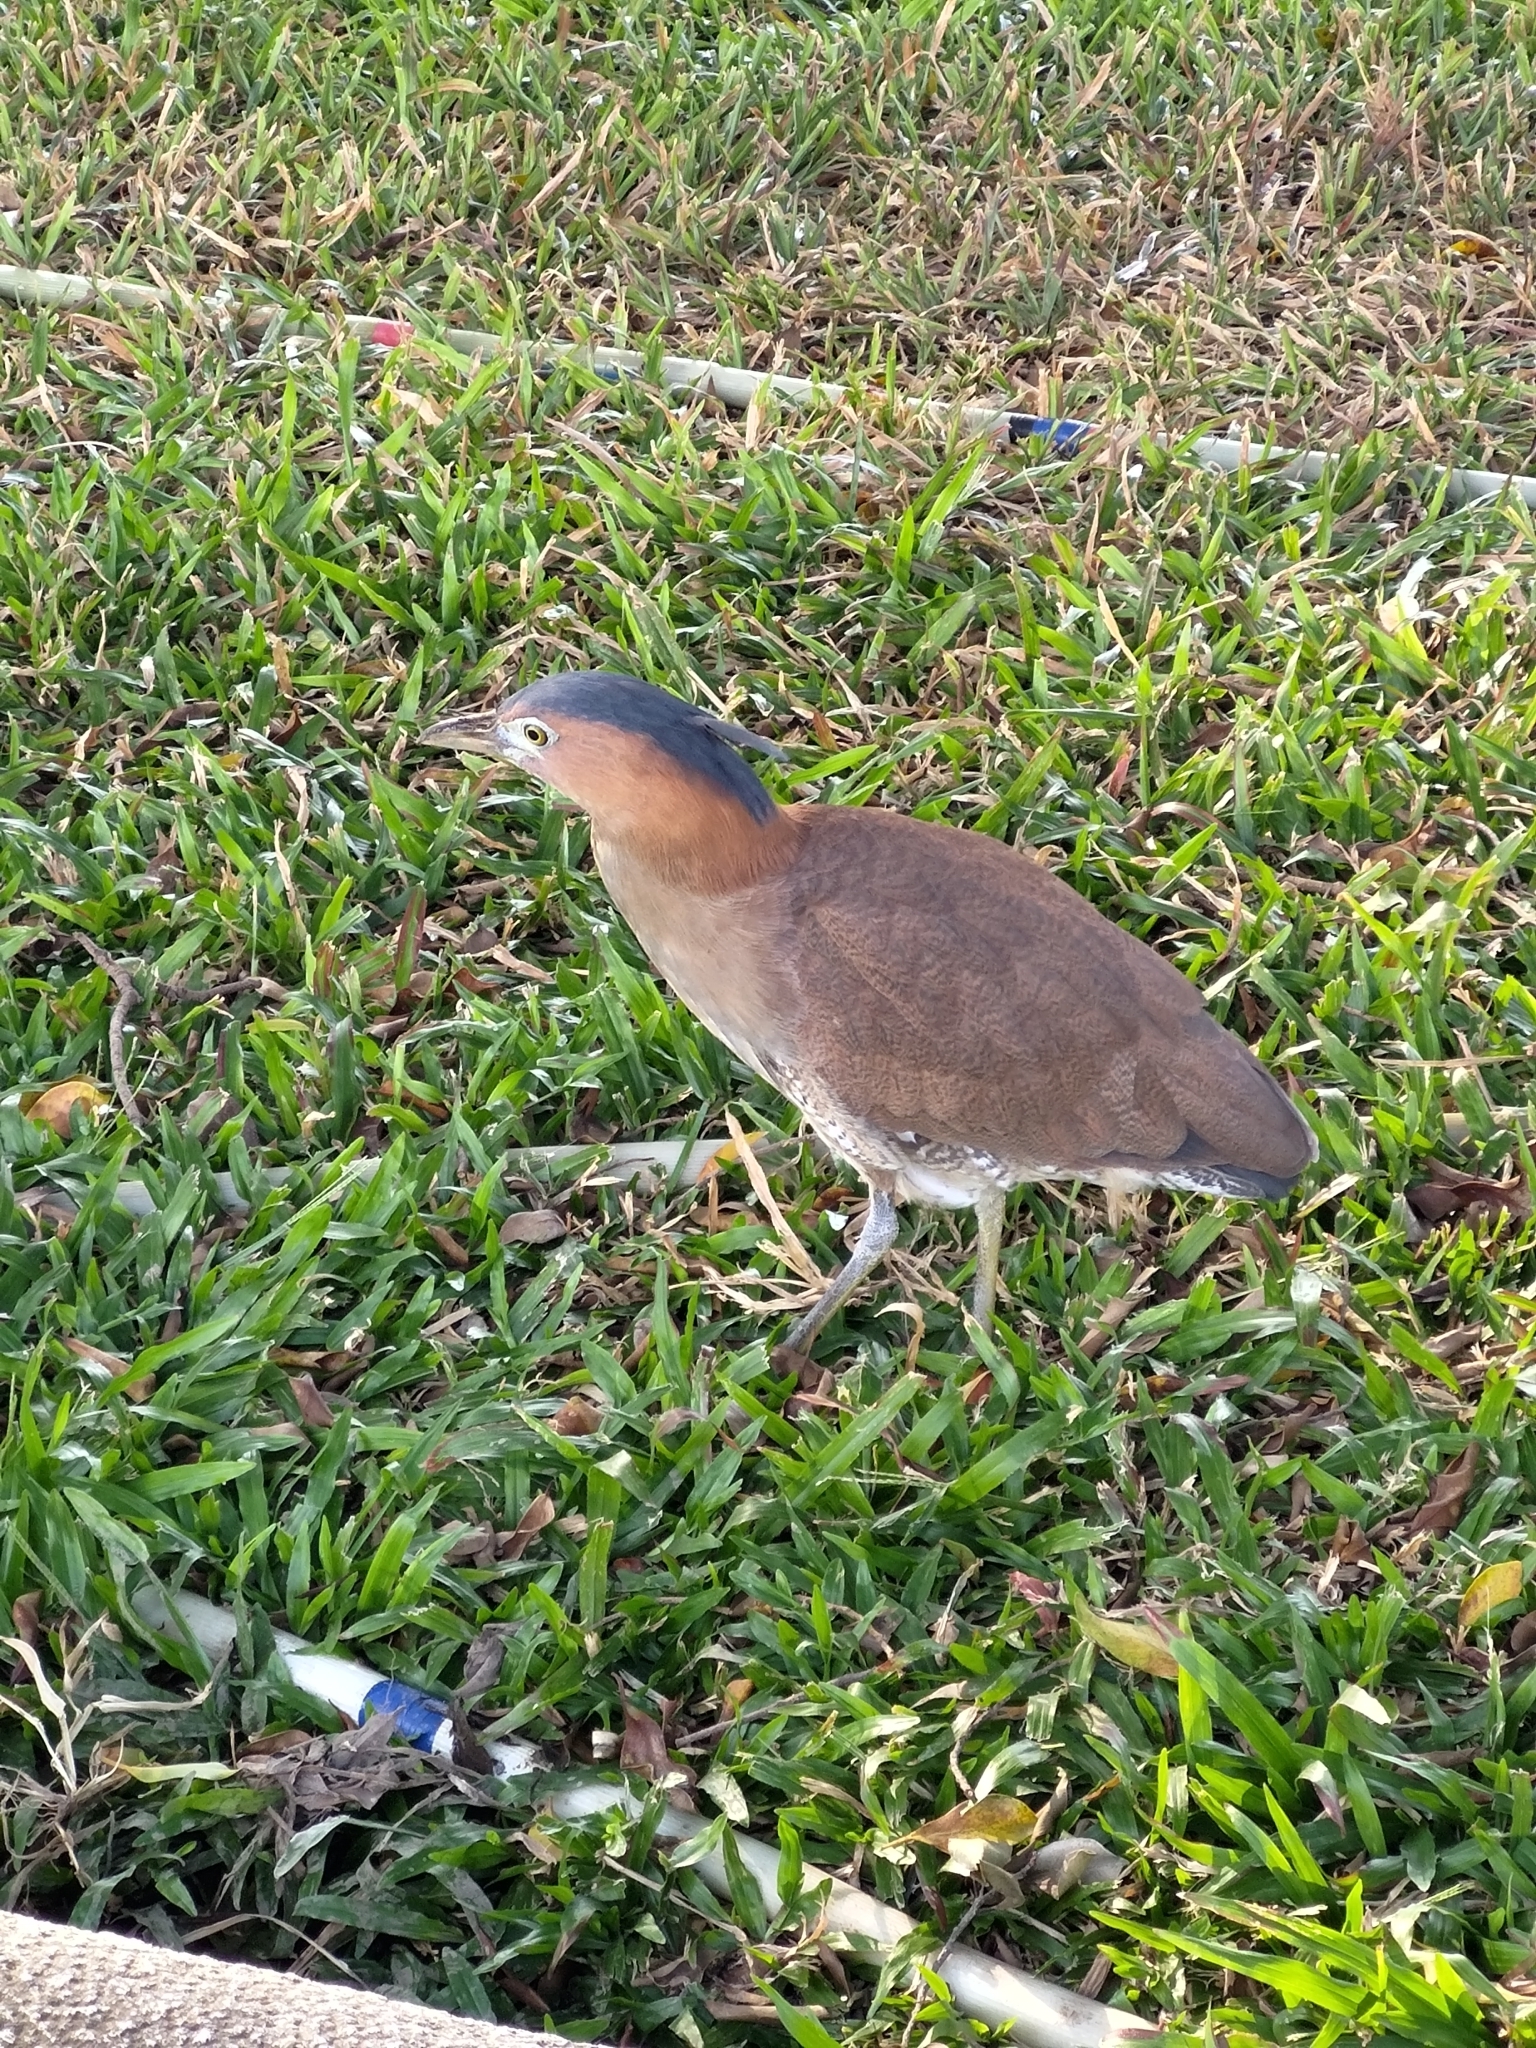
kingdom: Animalia
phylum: Chordata
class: Aves
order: Pelecaniformes
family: Ardeidae
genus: Gorsachius
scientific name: Gorsachius melanolophus
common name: Malayan night heron
